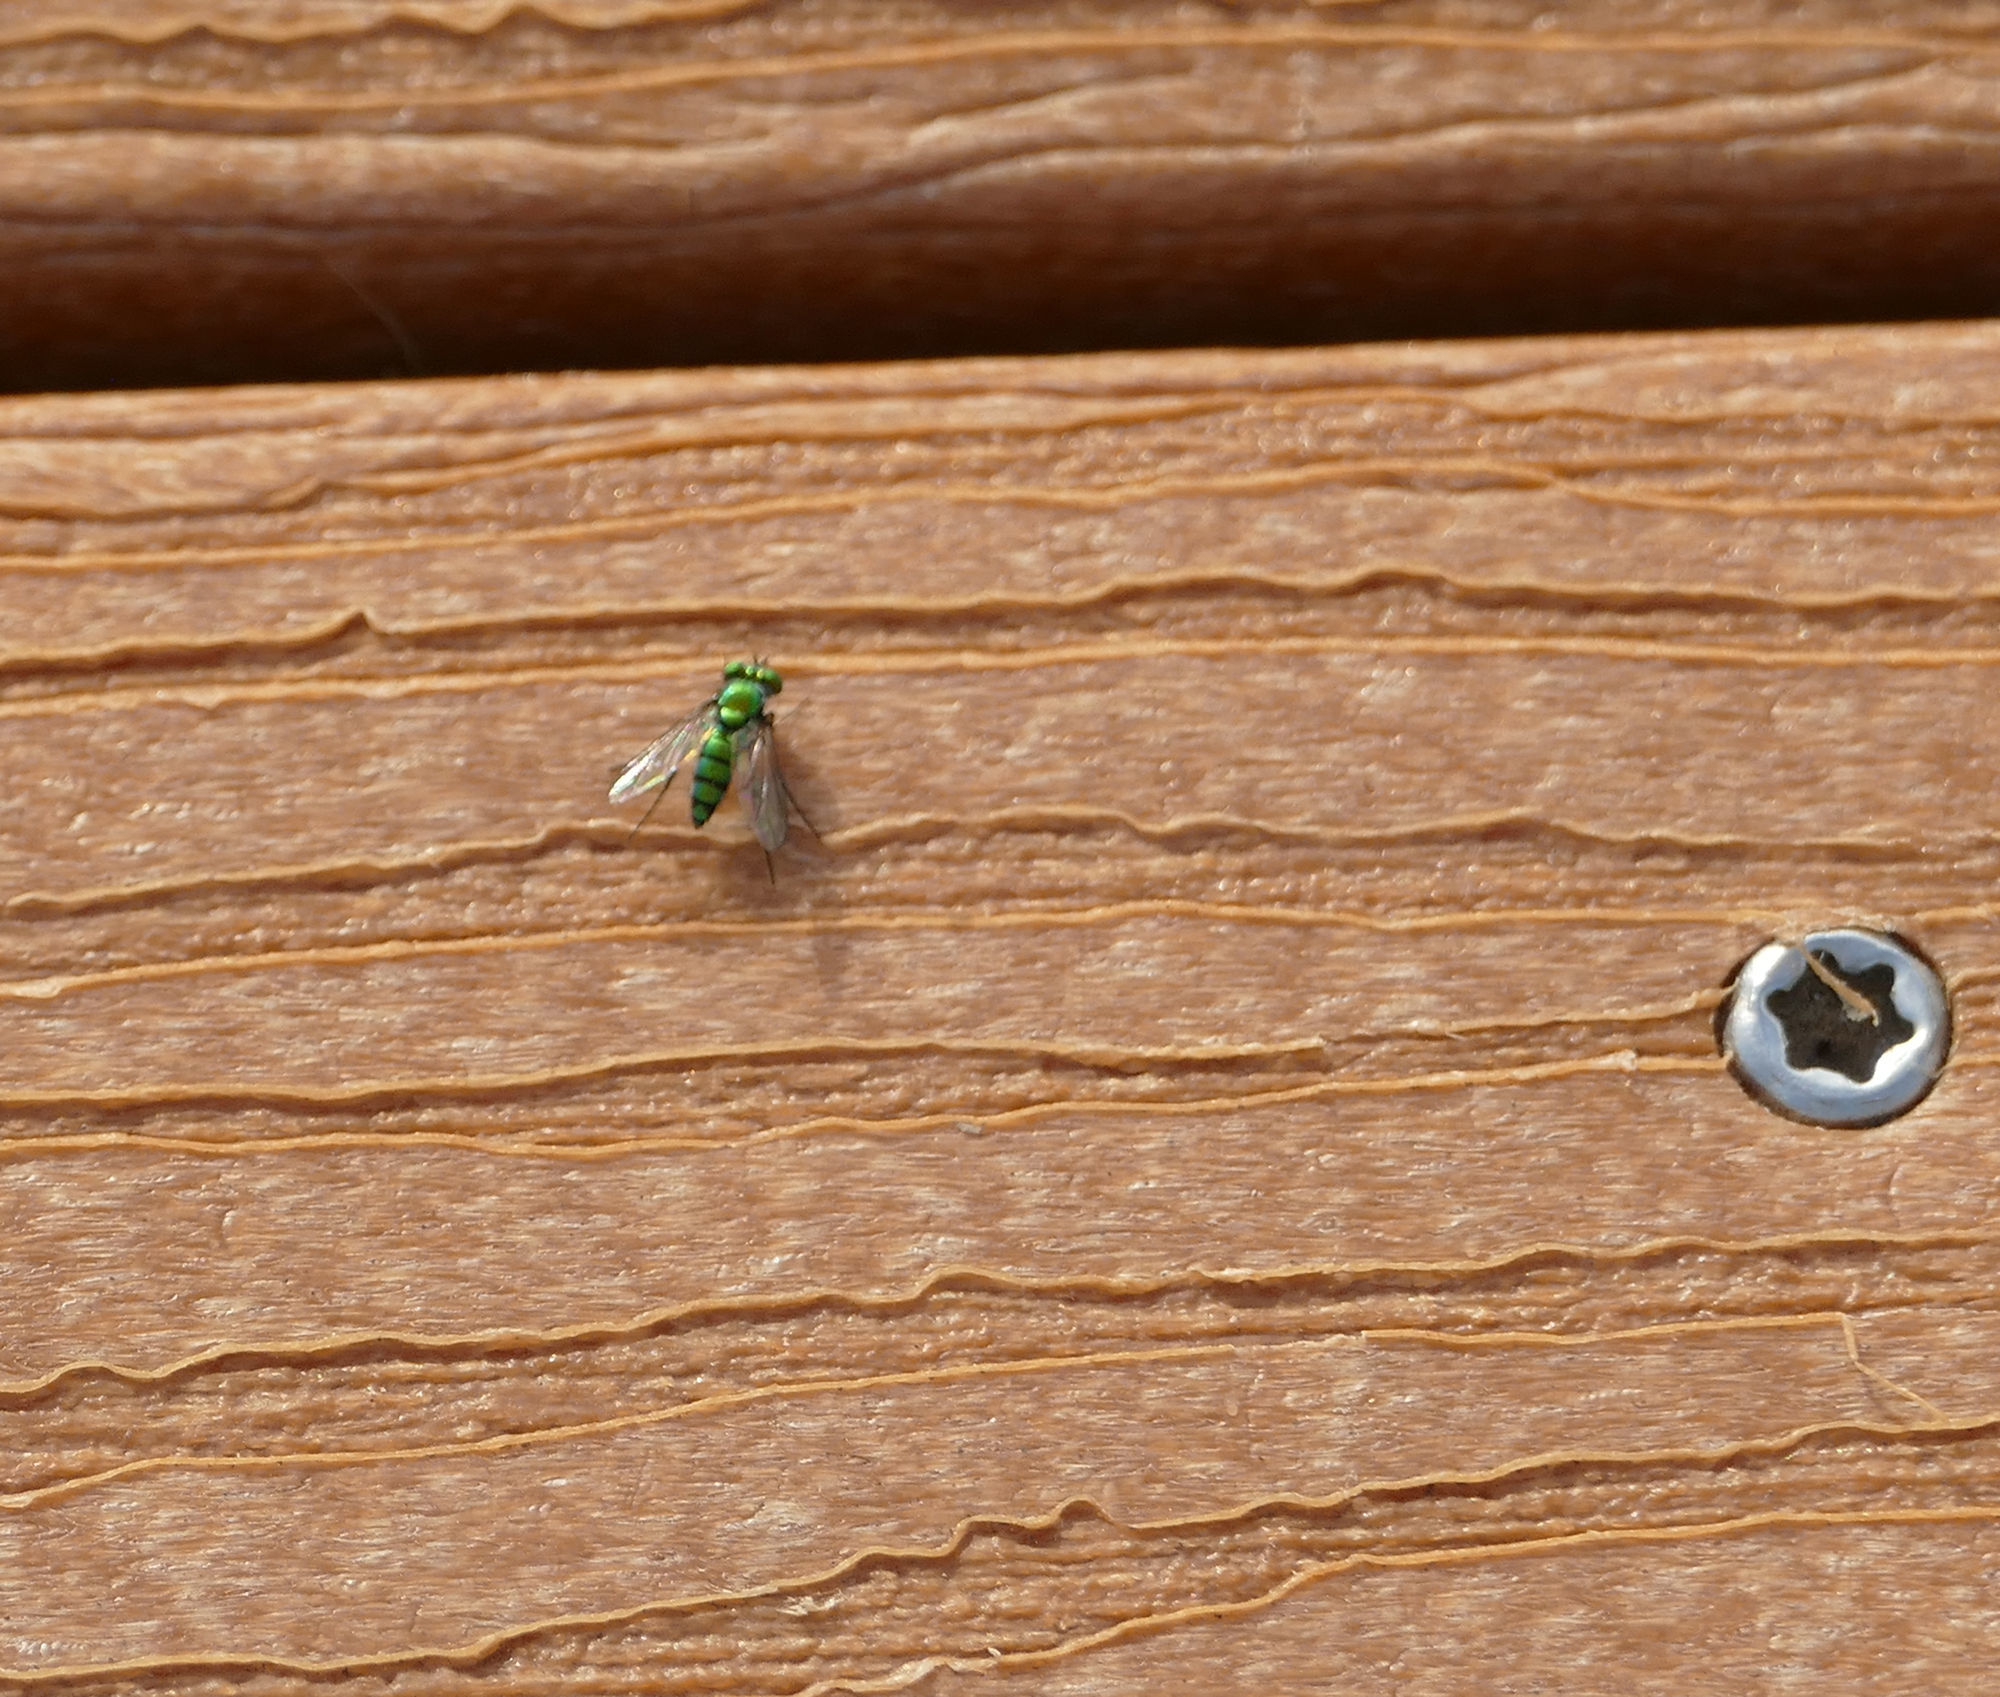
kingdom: Animalia
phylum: Arthropoda
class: Insecta
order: Diptera
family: Dolichopodidae
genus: Condylostylus
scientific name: Condylostylus longicornis
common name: Long-legged fly
